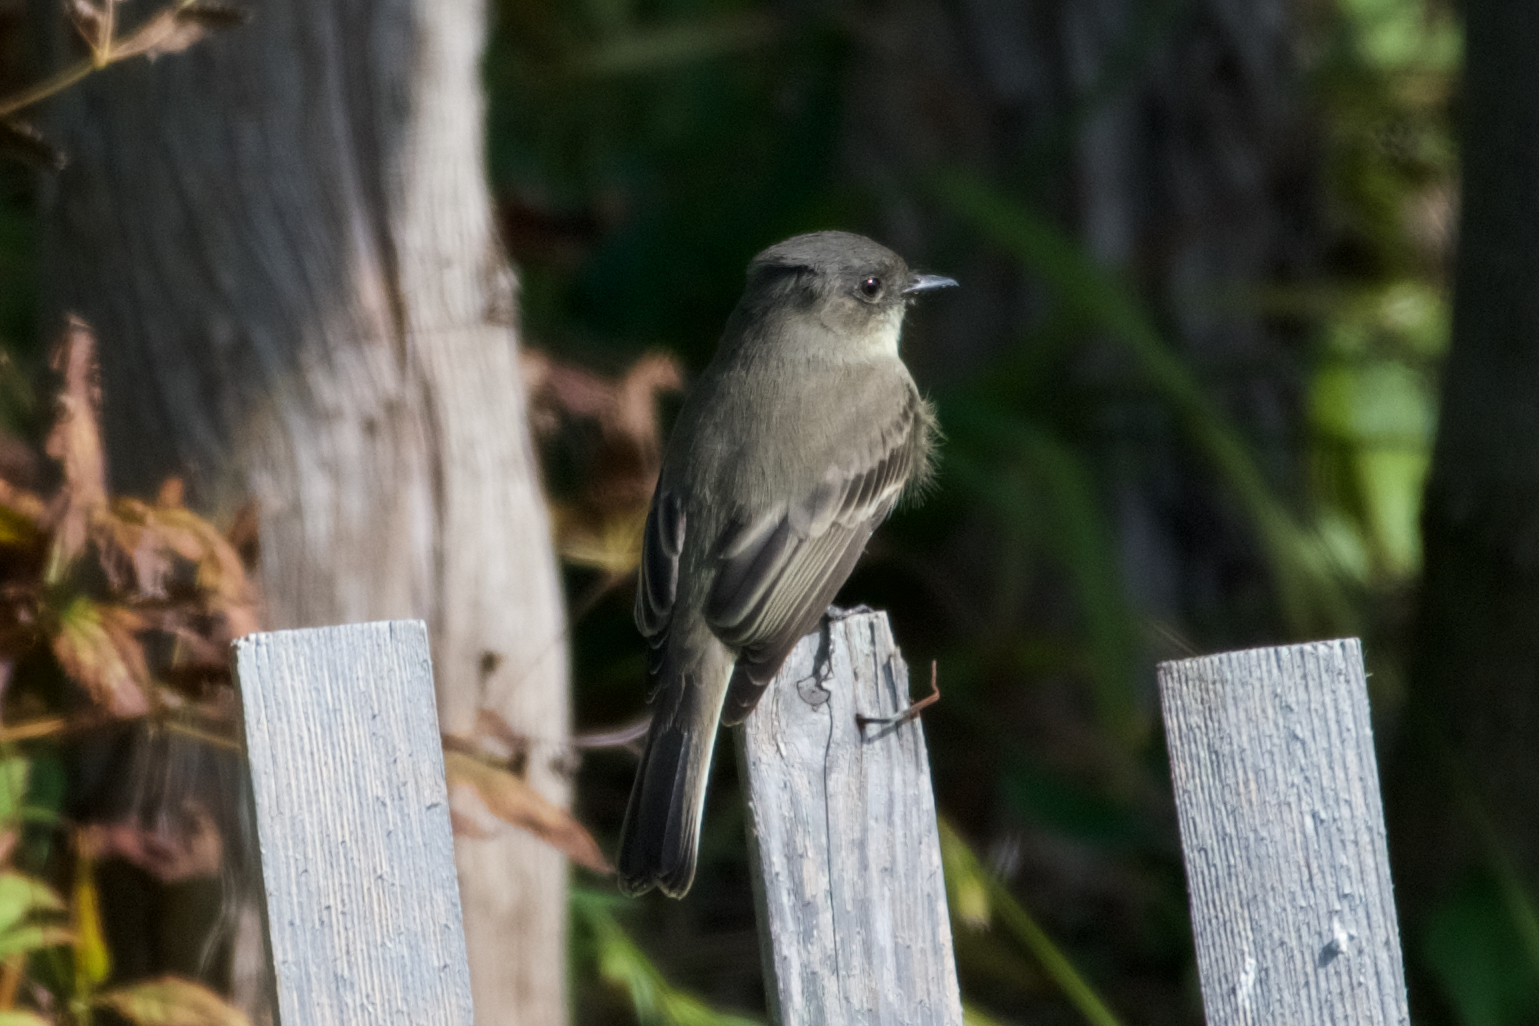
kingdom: Animalia
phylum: Chordata
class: Aves
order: Passeriformes
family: Tyrannidae
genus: Sayornis
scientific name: Sayornis phoebe
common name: Eastern phoebe
